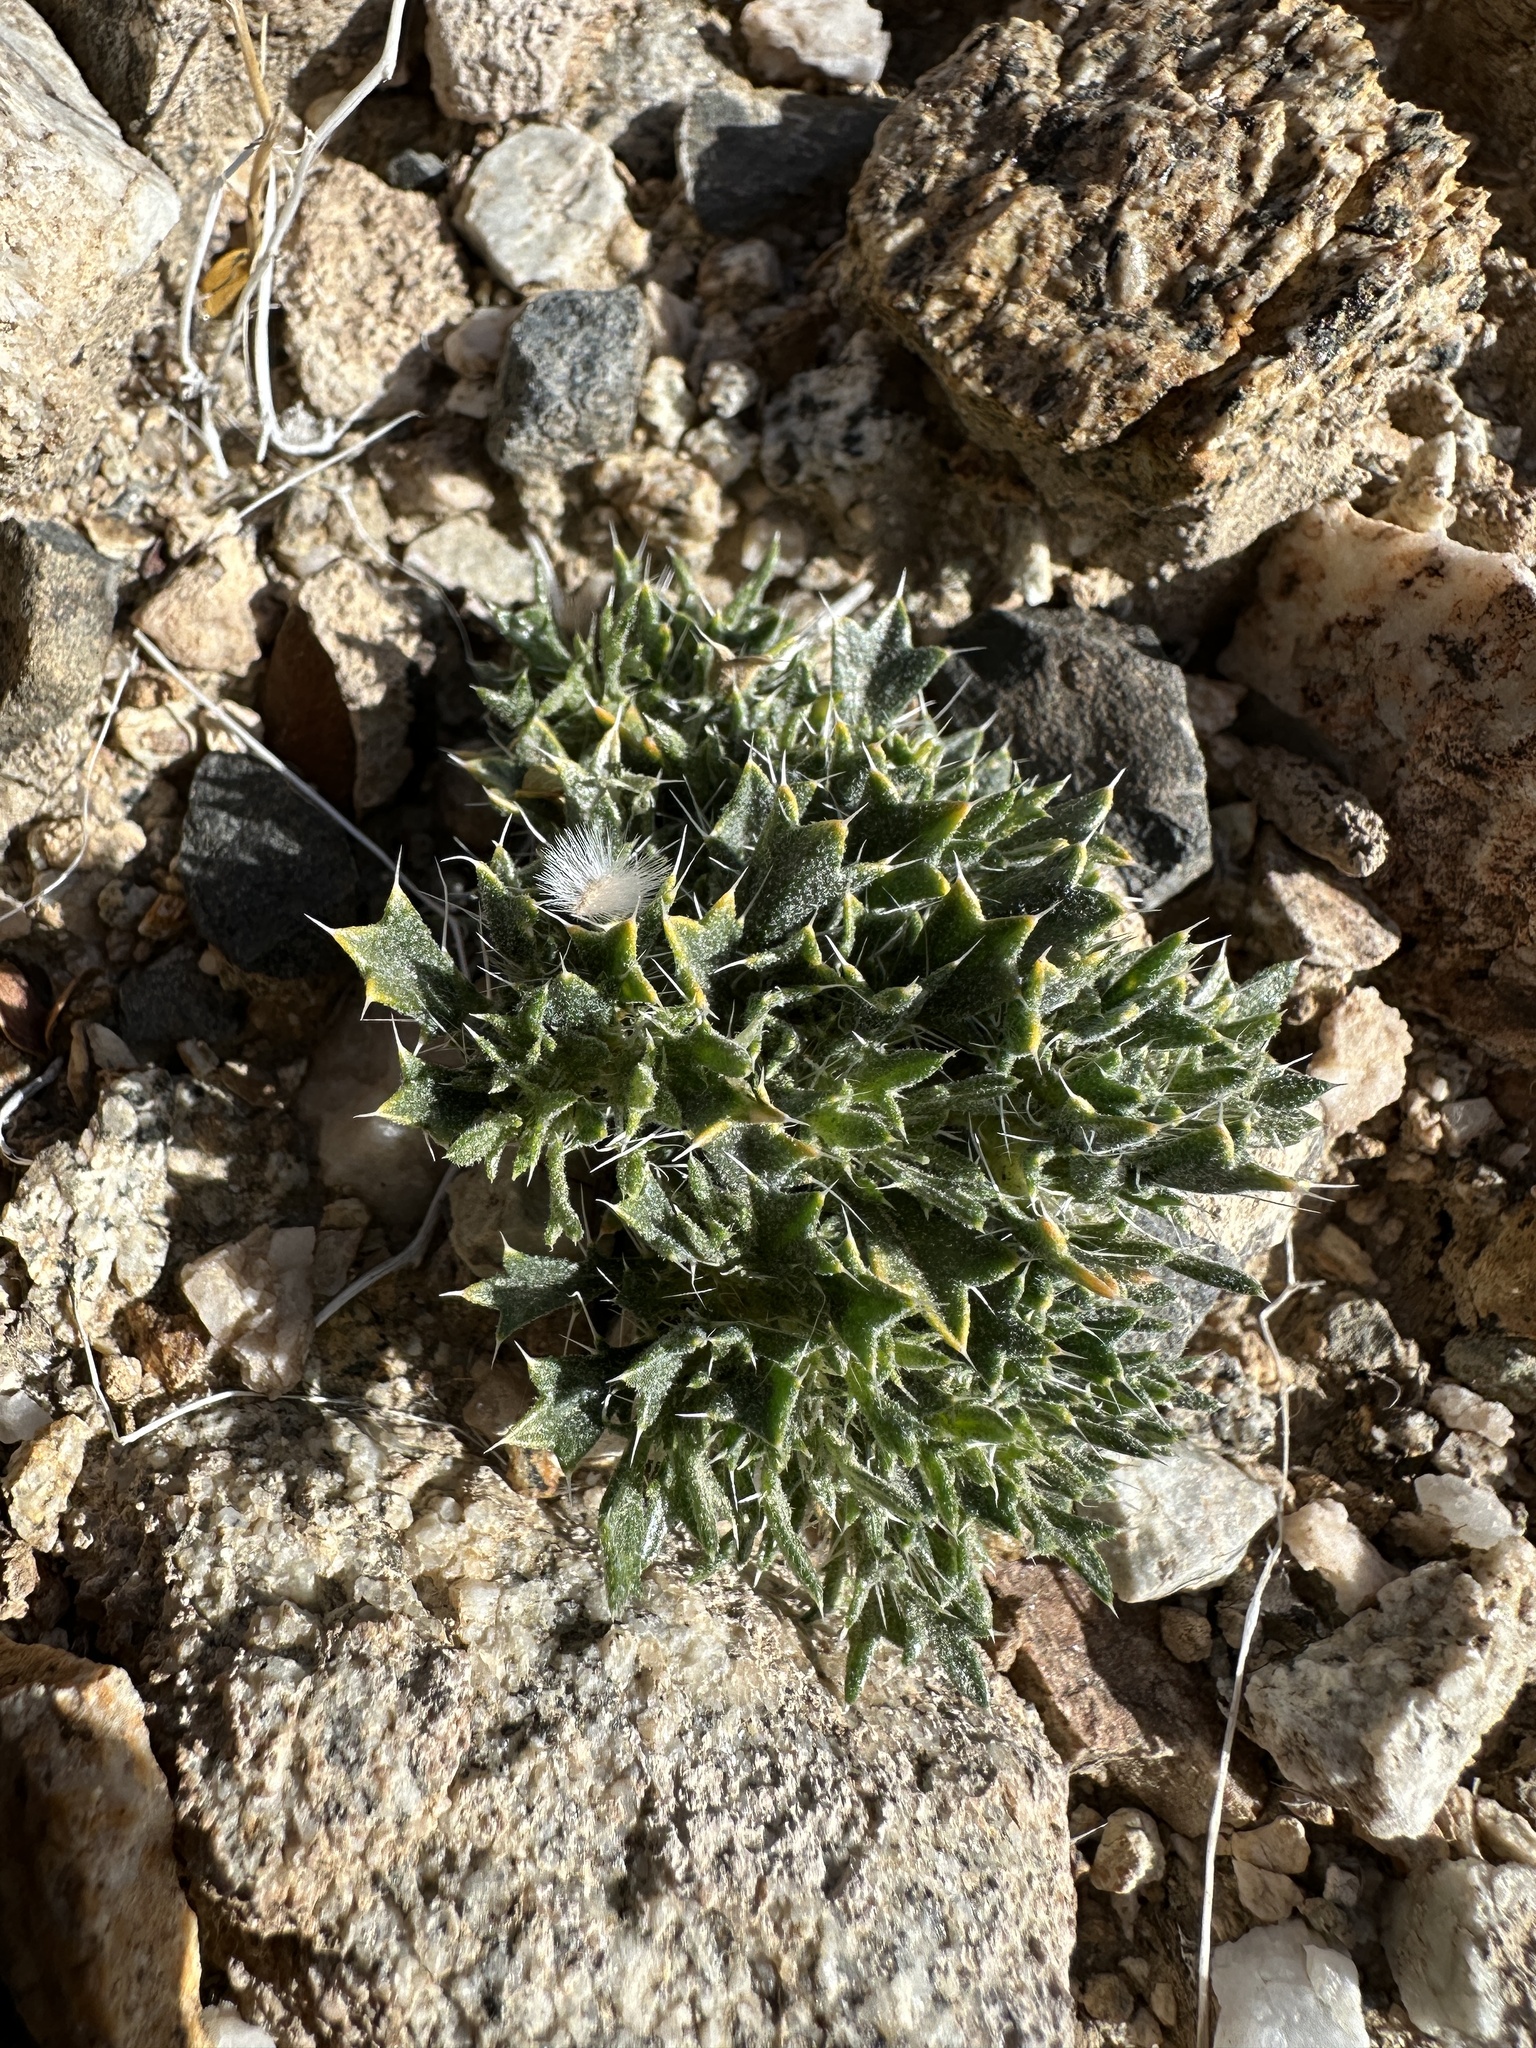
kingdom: Plantae
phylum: Tracheophyta
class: Magnoliopsida
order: Ericales
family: Polemoniaceae
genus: Langloisia
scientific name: Langloisia setosissima
